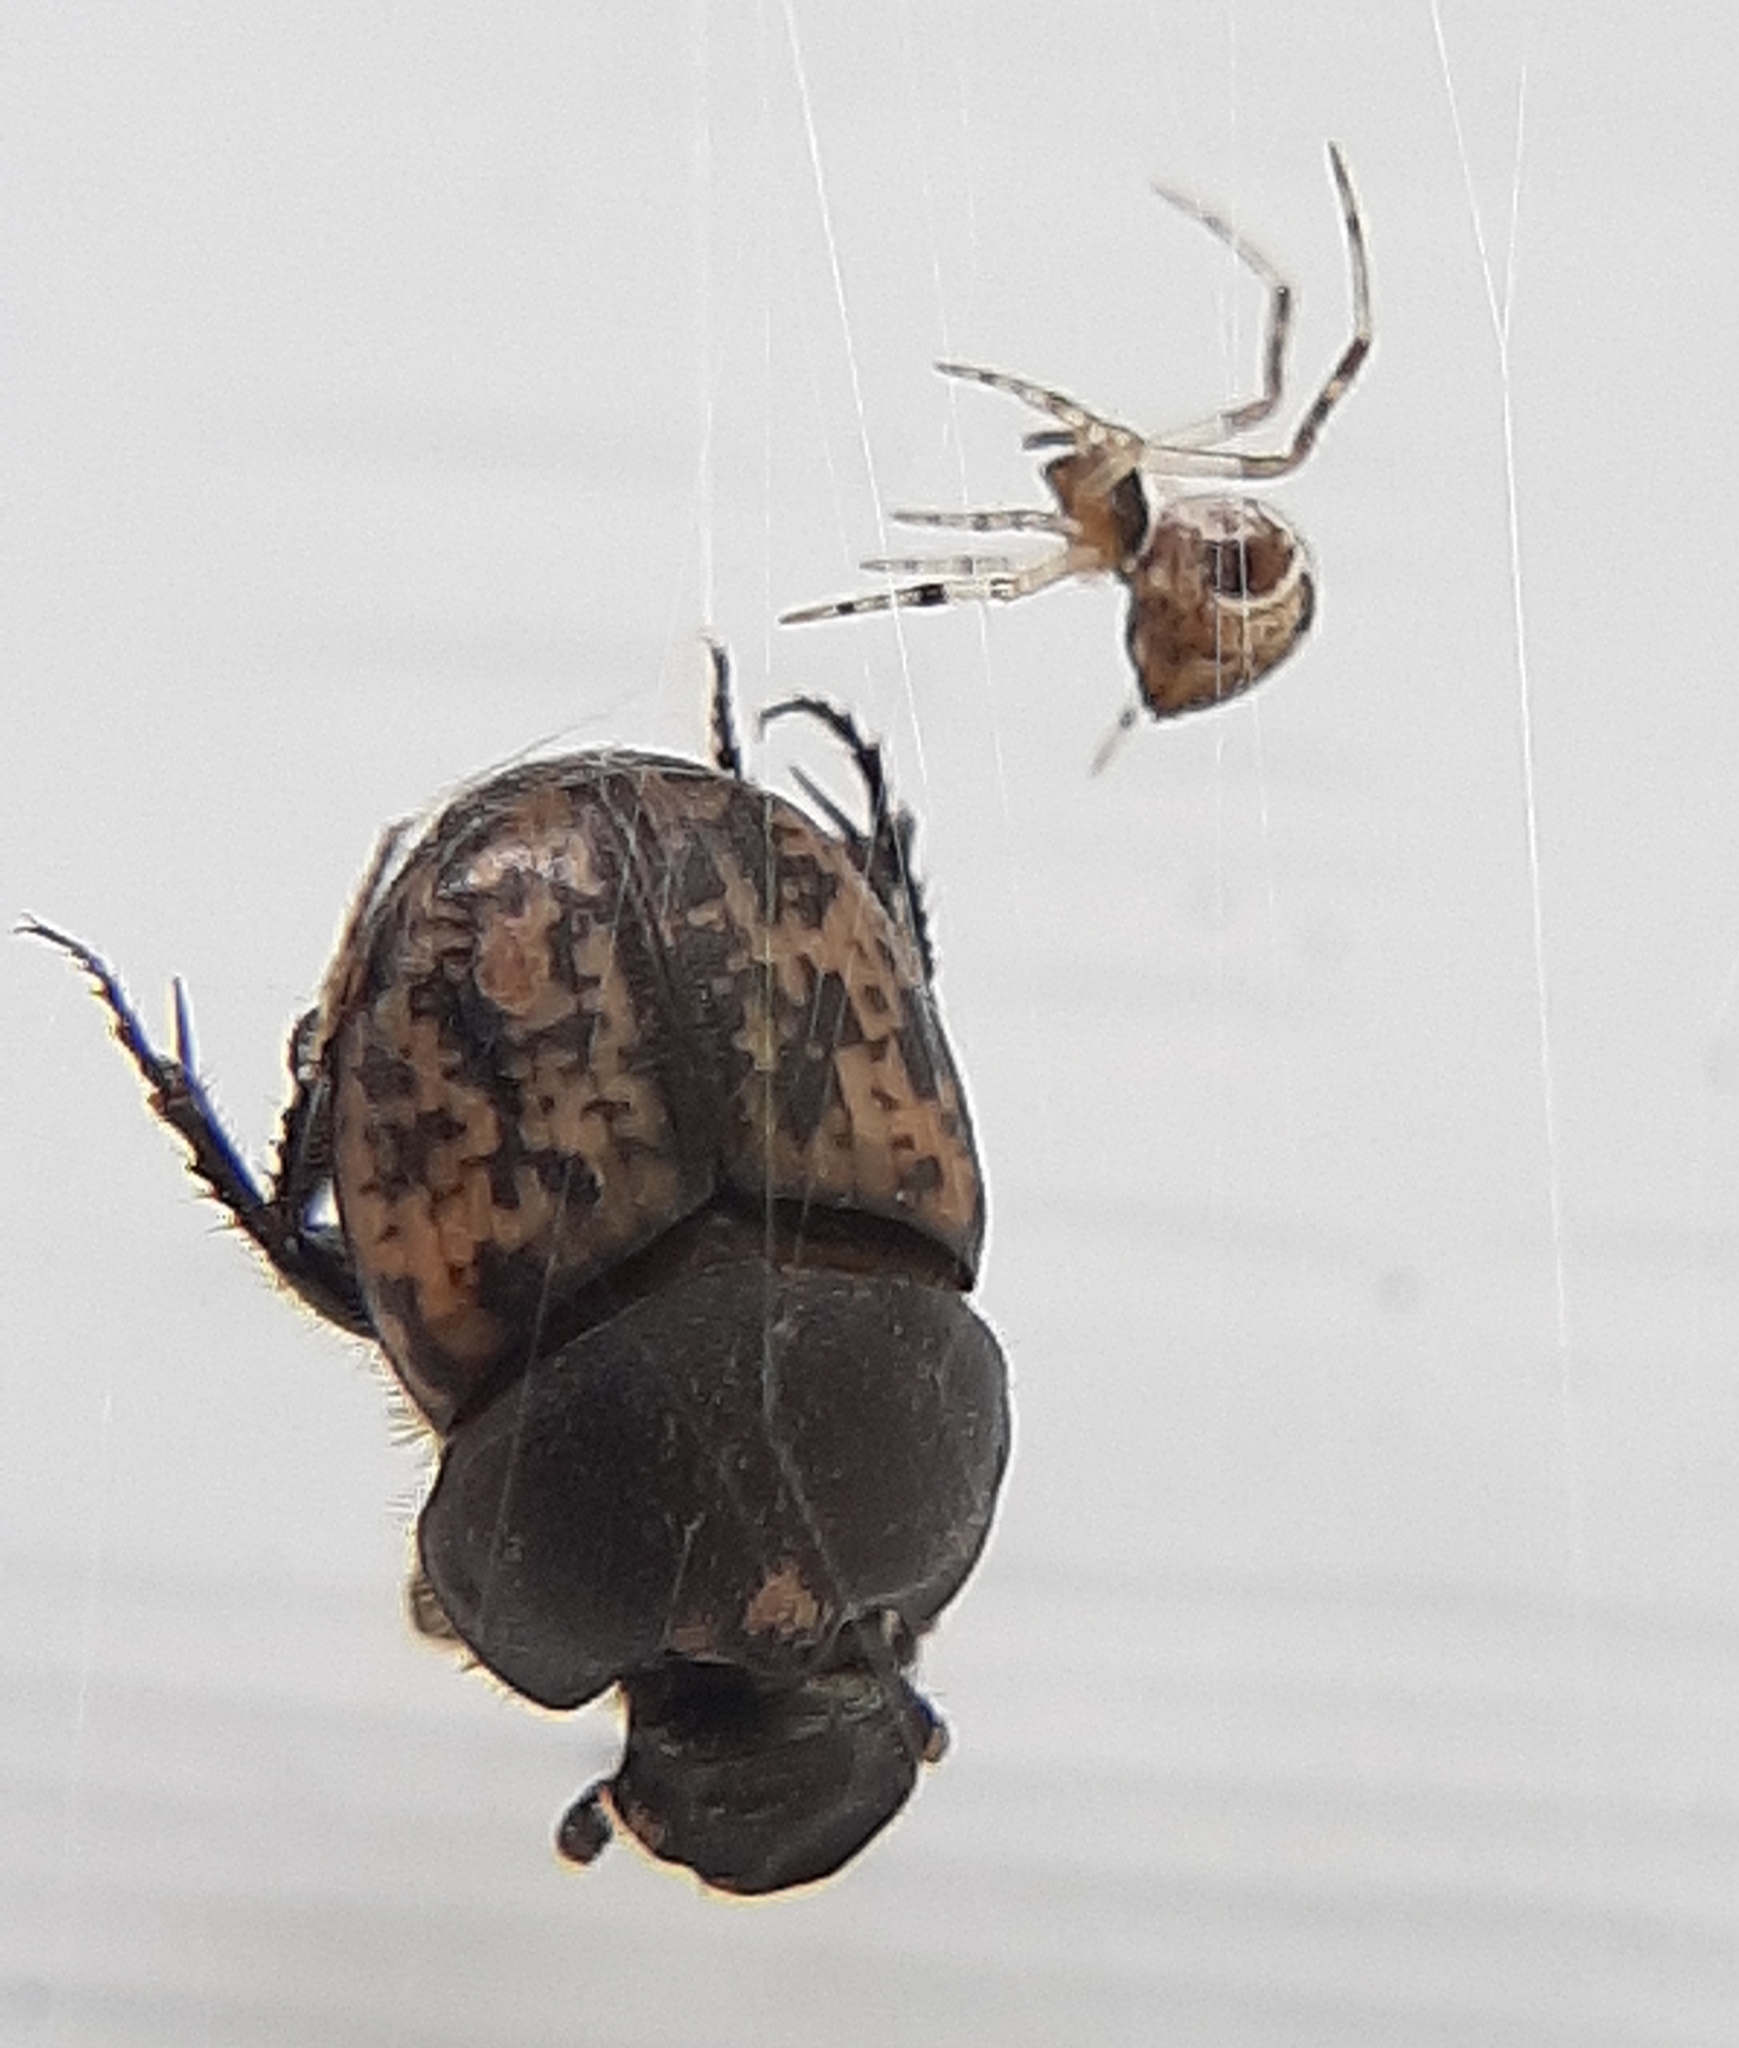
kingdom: Animalia
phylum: Arthropoda
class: Insecta
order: Coleoptera
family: Scarabaeidae
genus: Onthophagus
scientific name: Onthophagus nuchicornis
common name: Mottled dung beetle
